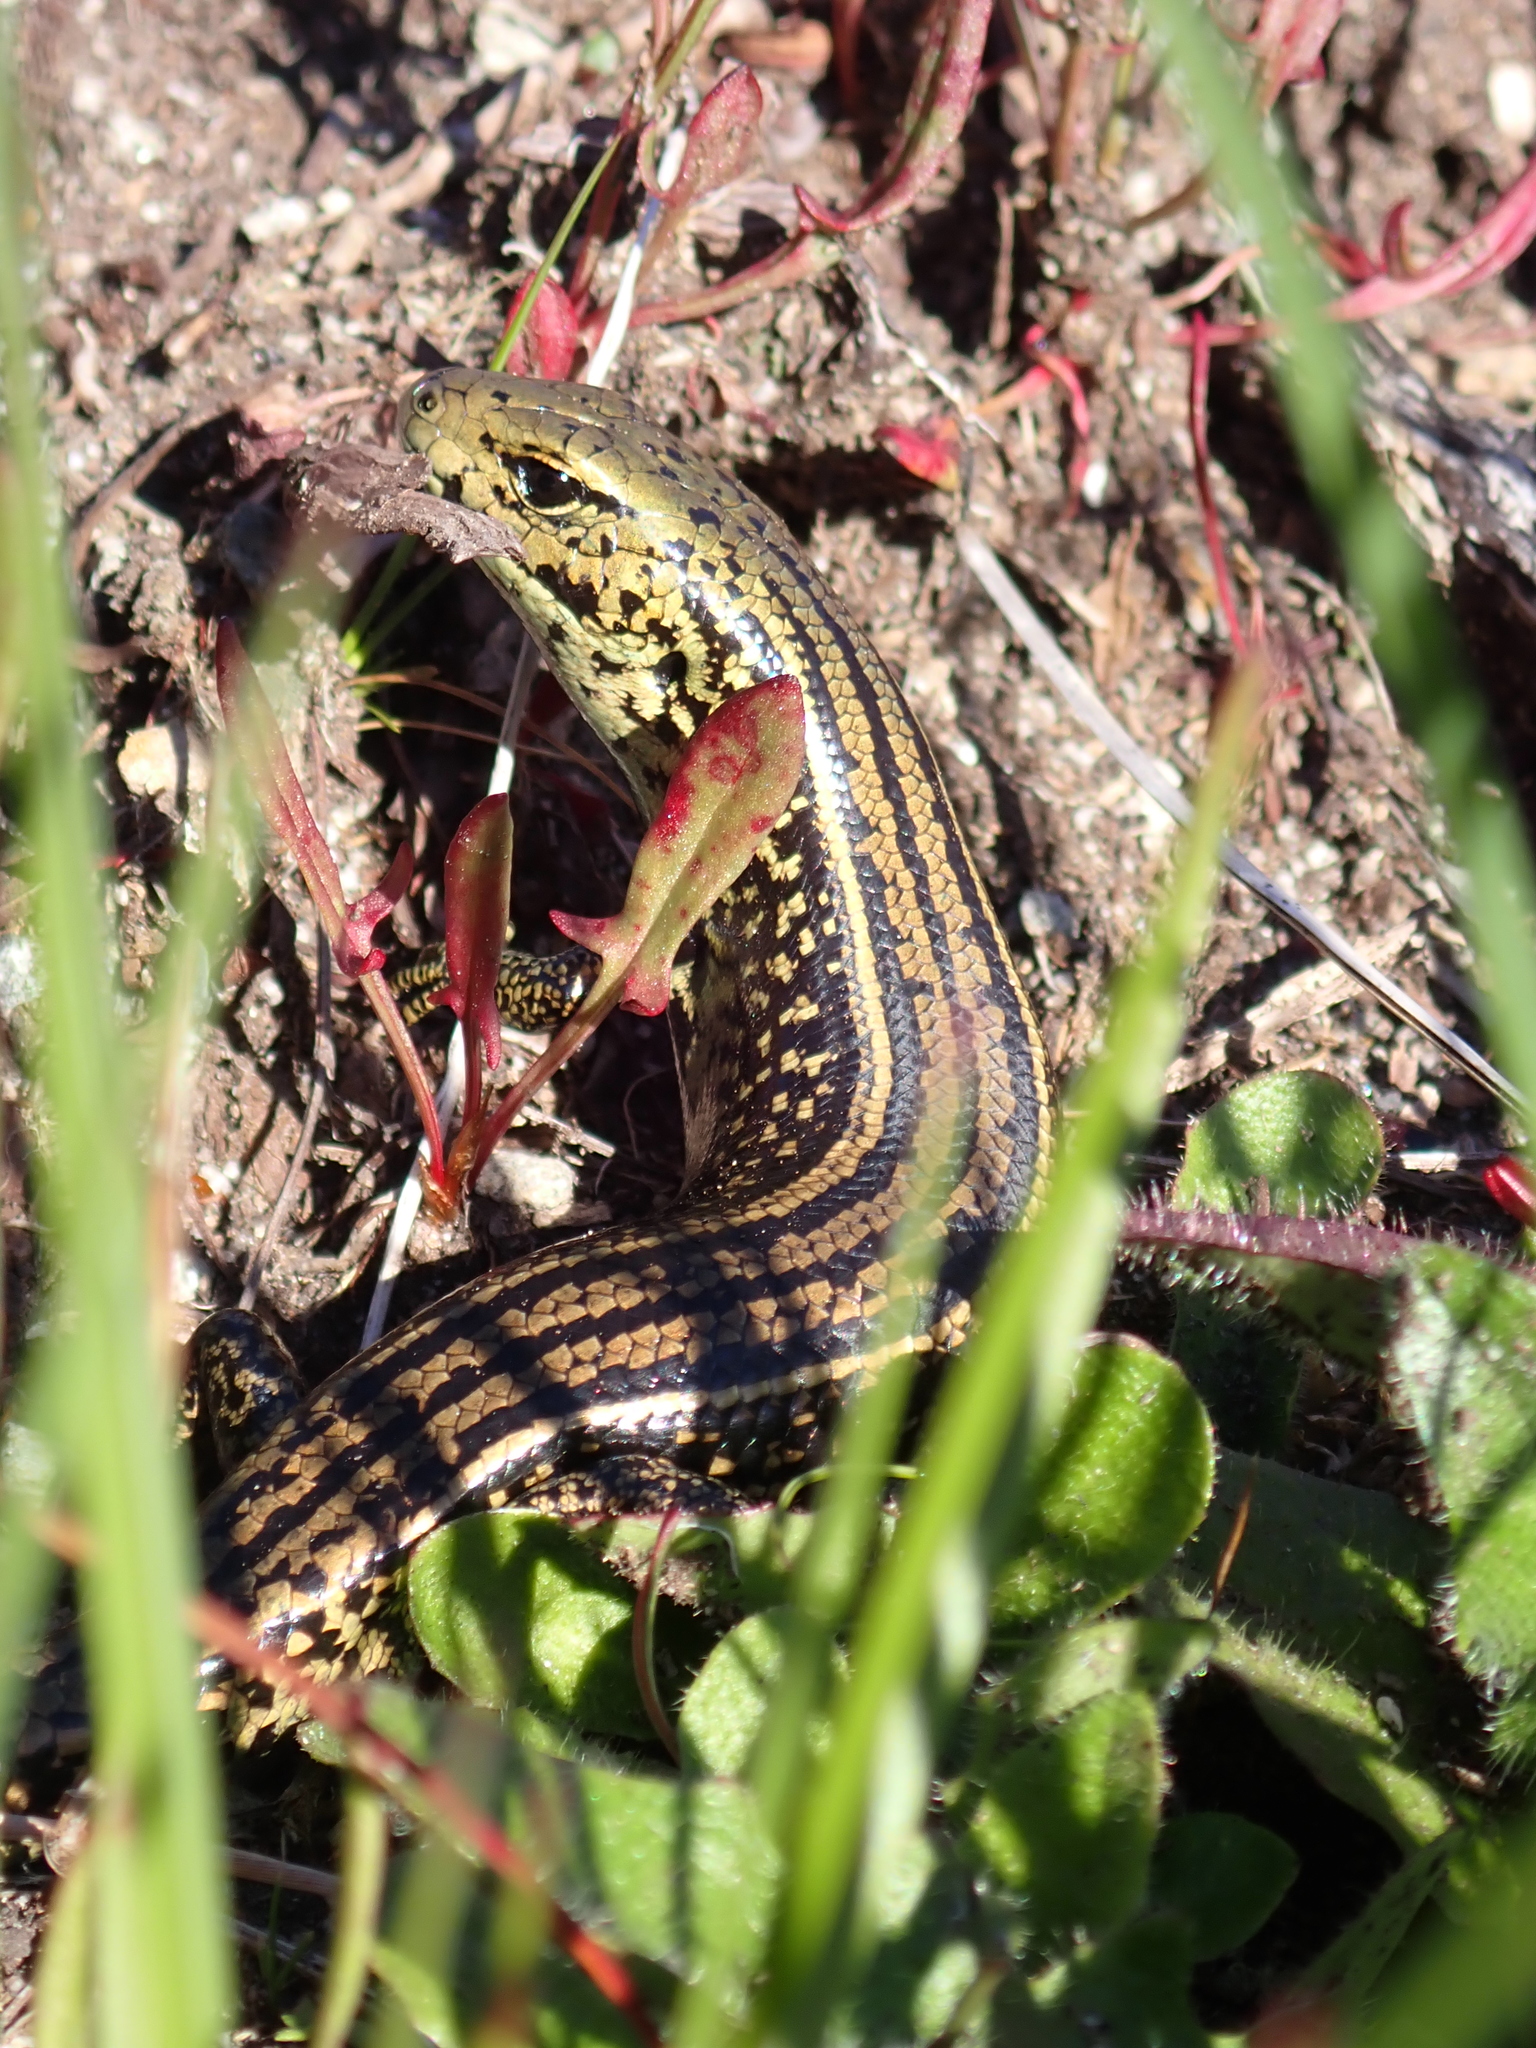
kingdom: Animalia
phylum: Chordata
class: Squamata
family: Scincidae
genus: Eulamprus
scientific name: Eulamprus kosciuskoi
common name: Alpine meadow-skink
